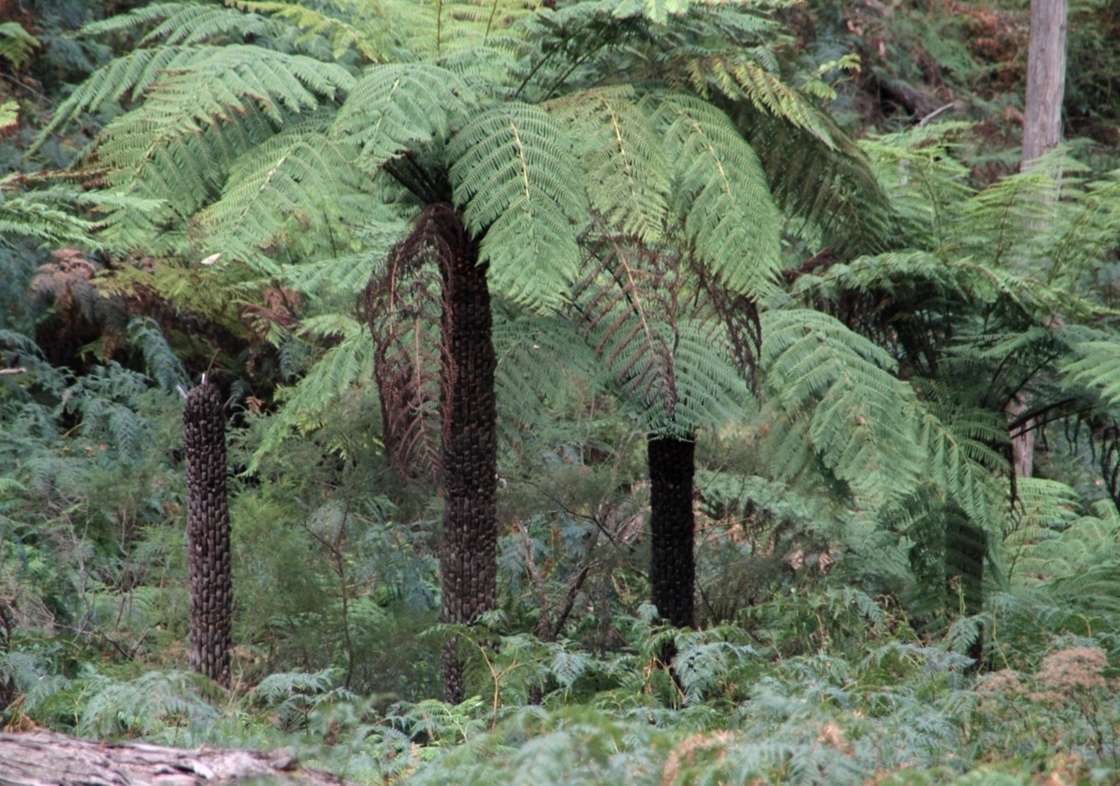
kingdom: Plantae
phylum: Tracheophyta
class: Polypodiopsida
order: Cyatheales
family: Cyatheaceae
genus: Alsophila
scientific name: Alsophila australis
